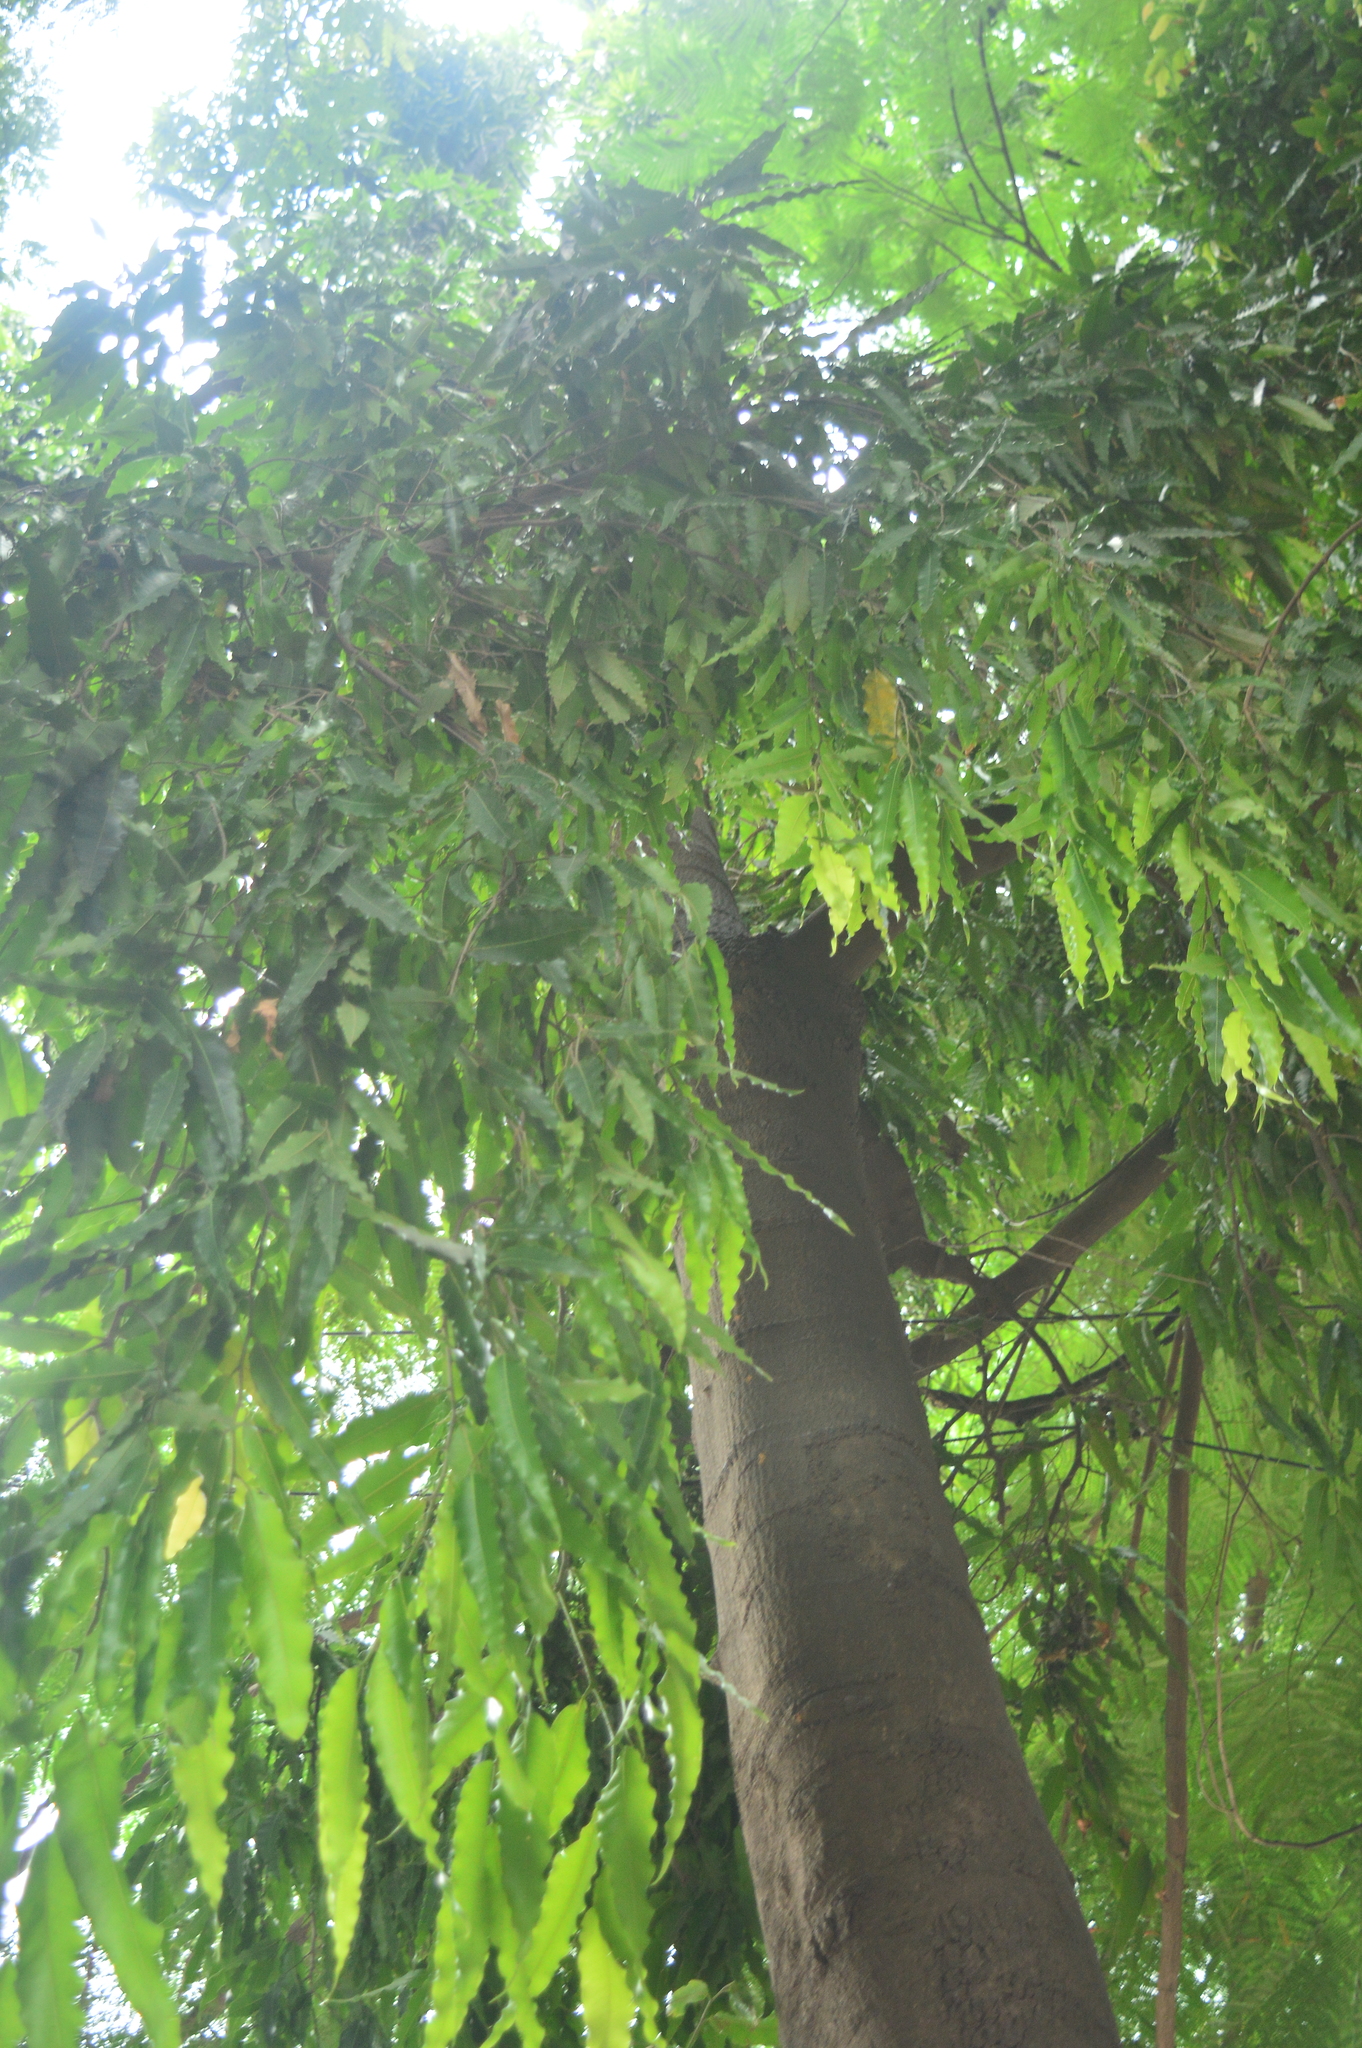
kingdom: Plantae
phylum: Tracheophyta
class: Magnoliopsida
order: Magnoliales
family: Annonaceae
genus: Polyalthia
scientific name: Polyalthia longifolia
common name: Cemetery-tree
